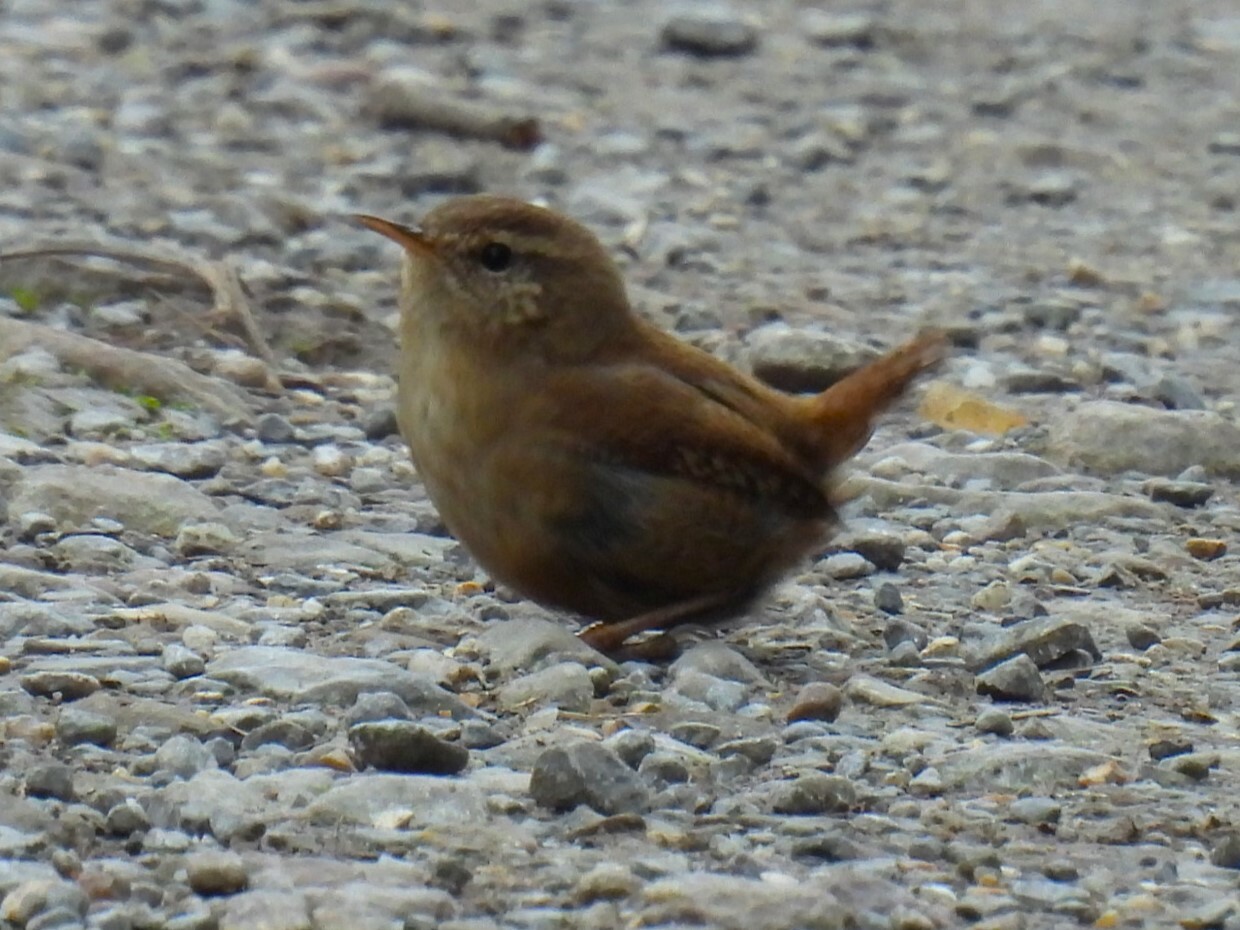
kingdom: Animalia
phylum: Chordata
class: Aves
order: Passeriformes
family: Troglodytidae
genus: Troglodytes
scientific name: Troglodytes troglodytes
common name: Eurasian wren
